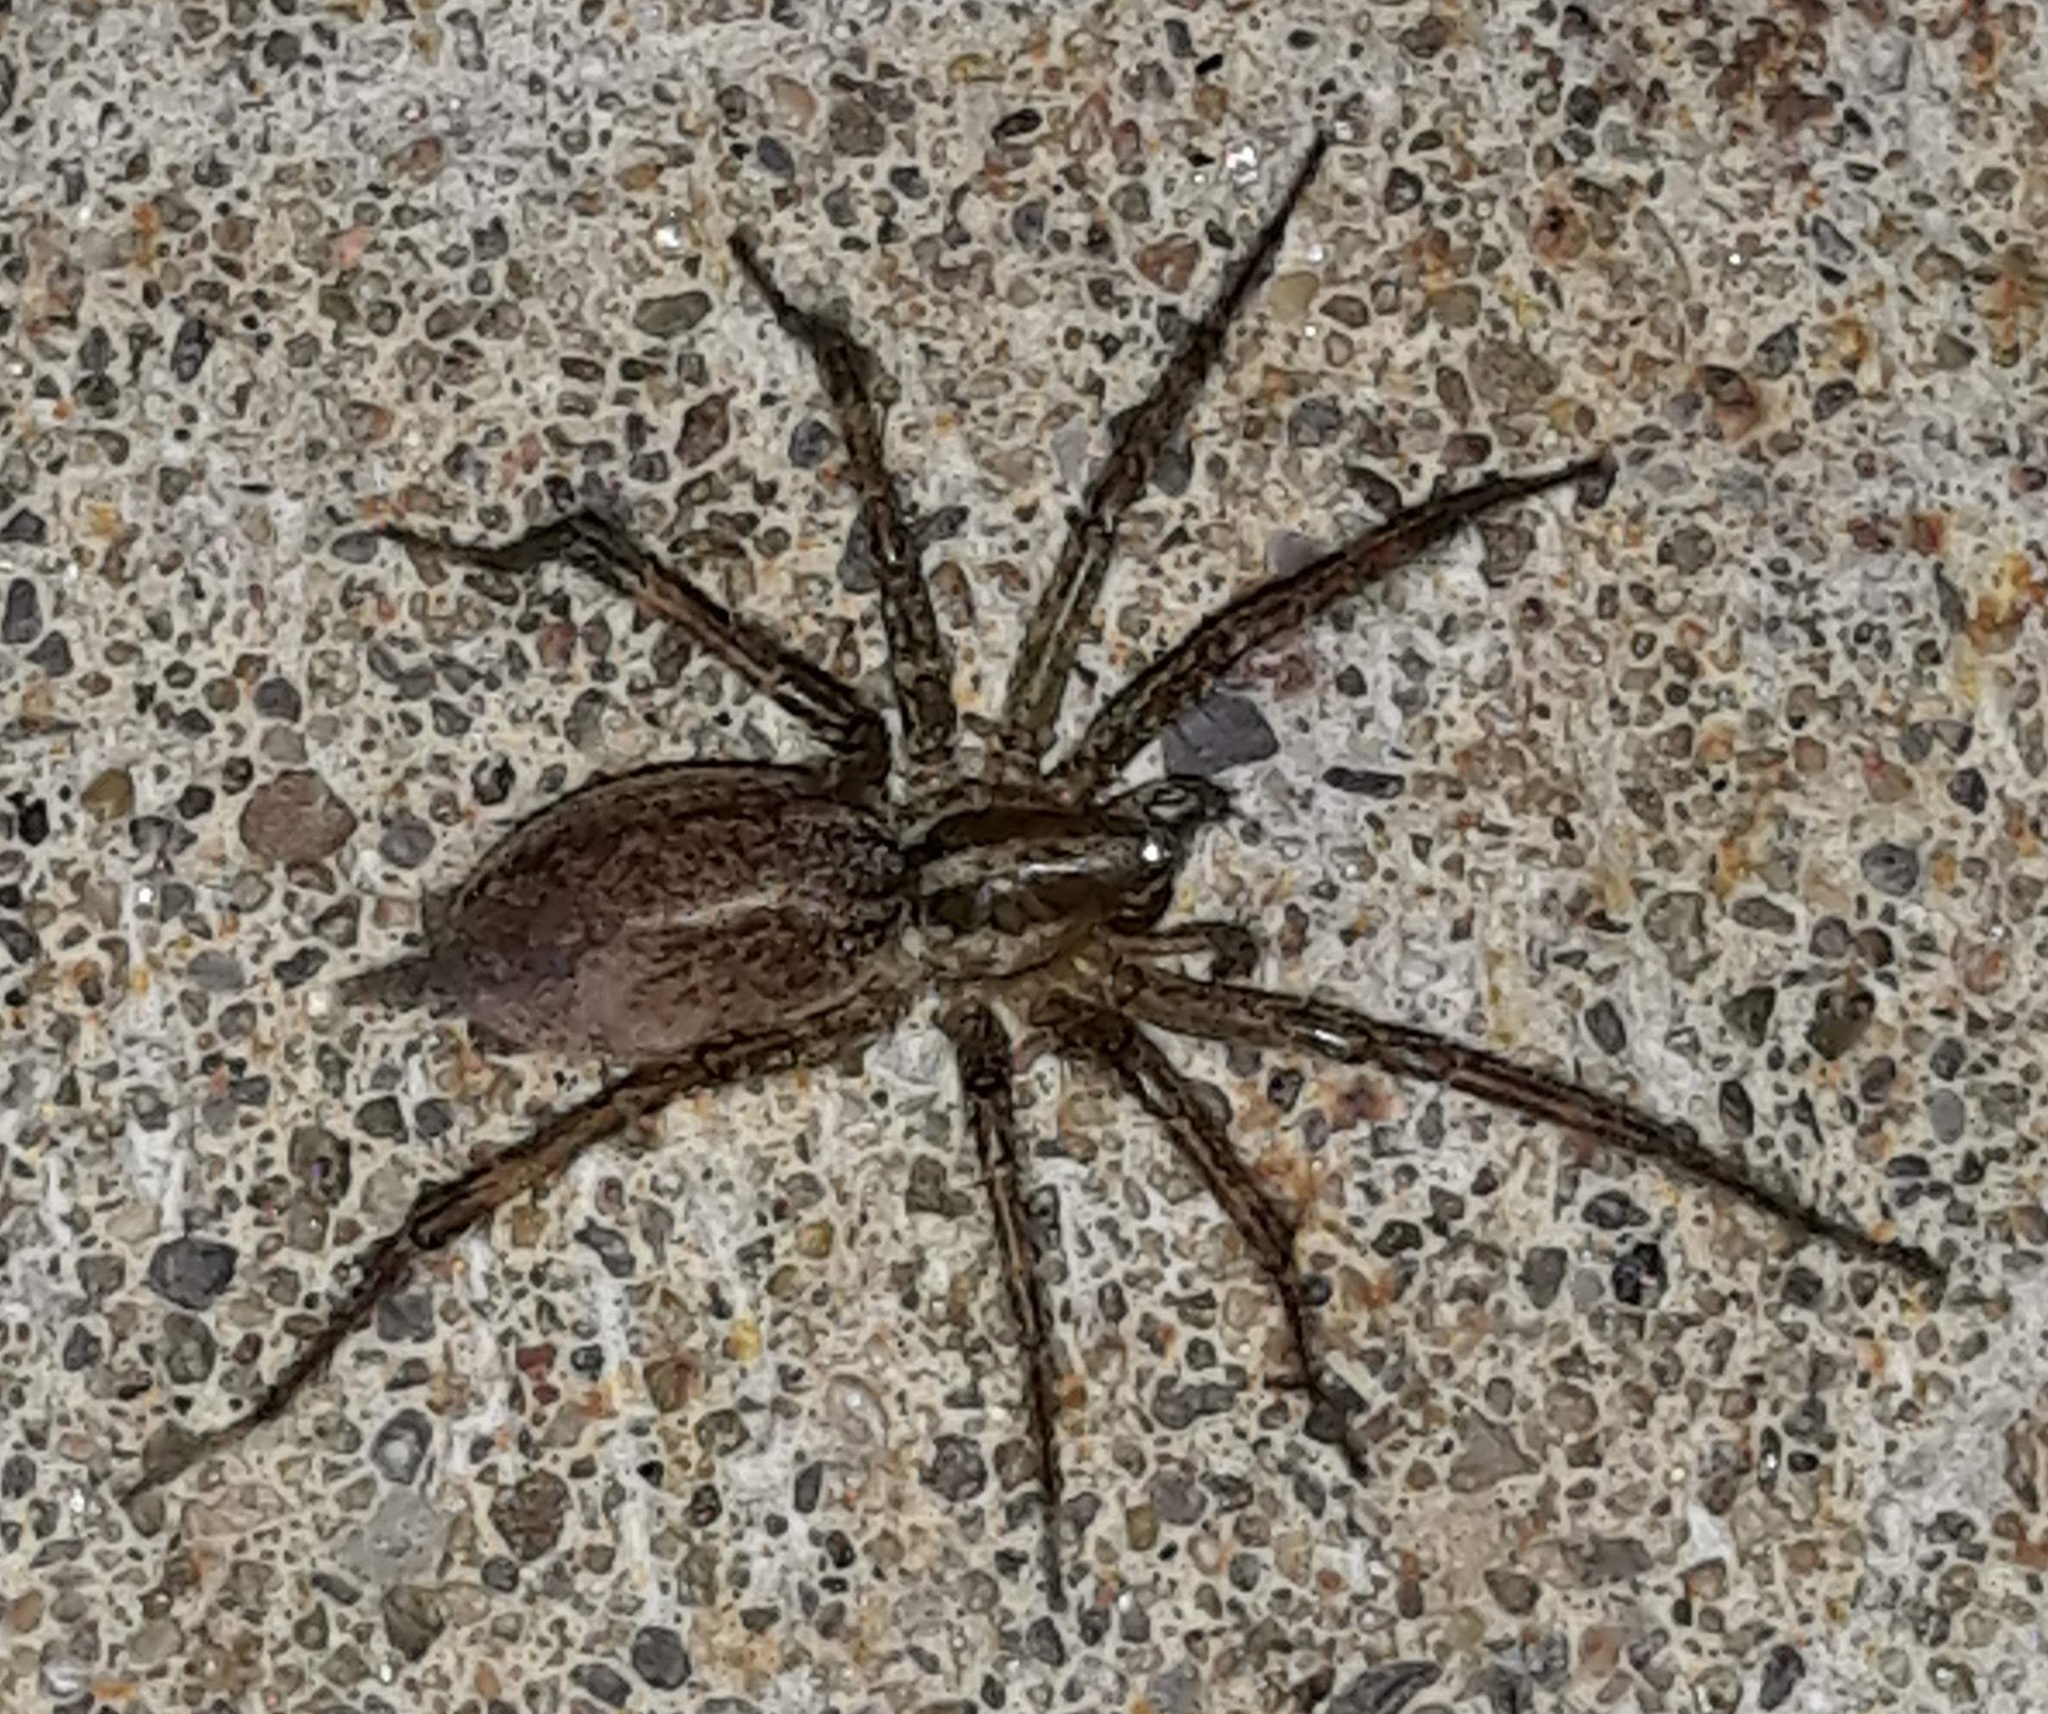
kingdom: Animalia
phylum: Arthropoda
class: Arachnida
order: Araneae
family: Agelenidae
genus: Agelenopsis
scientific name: Agelenopsis
